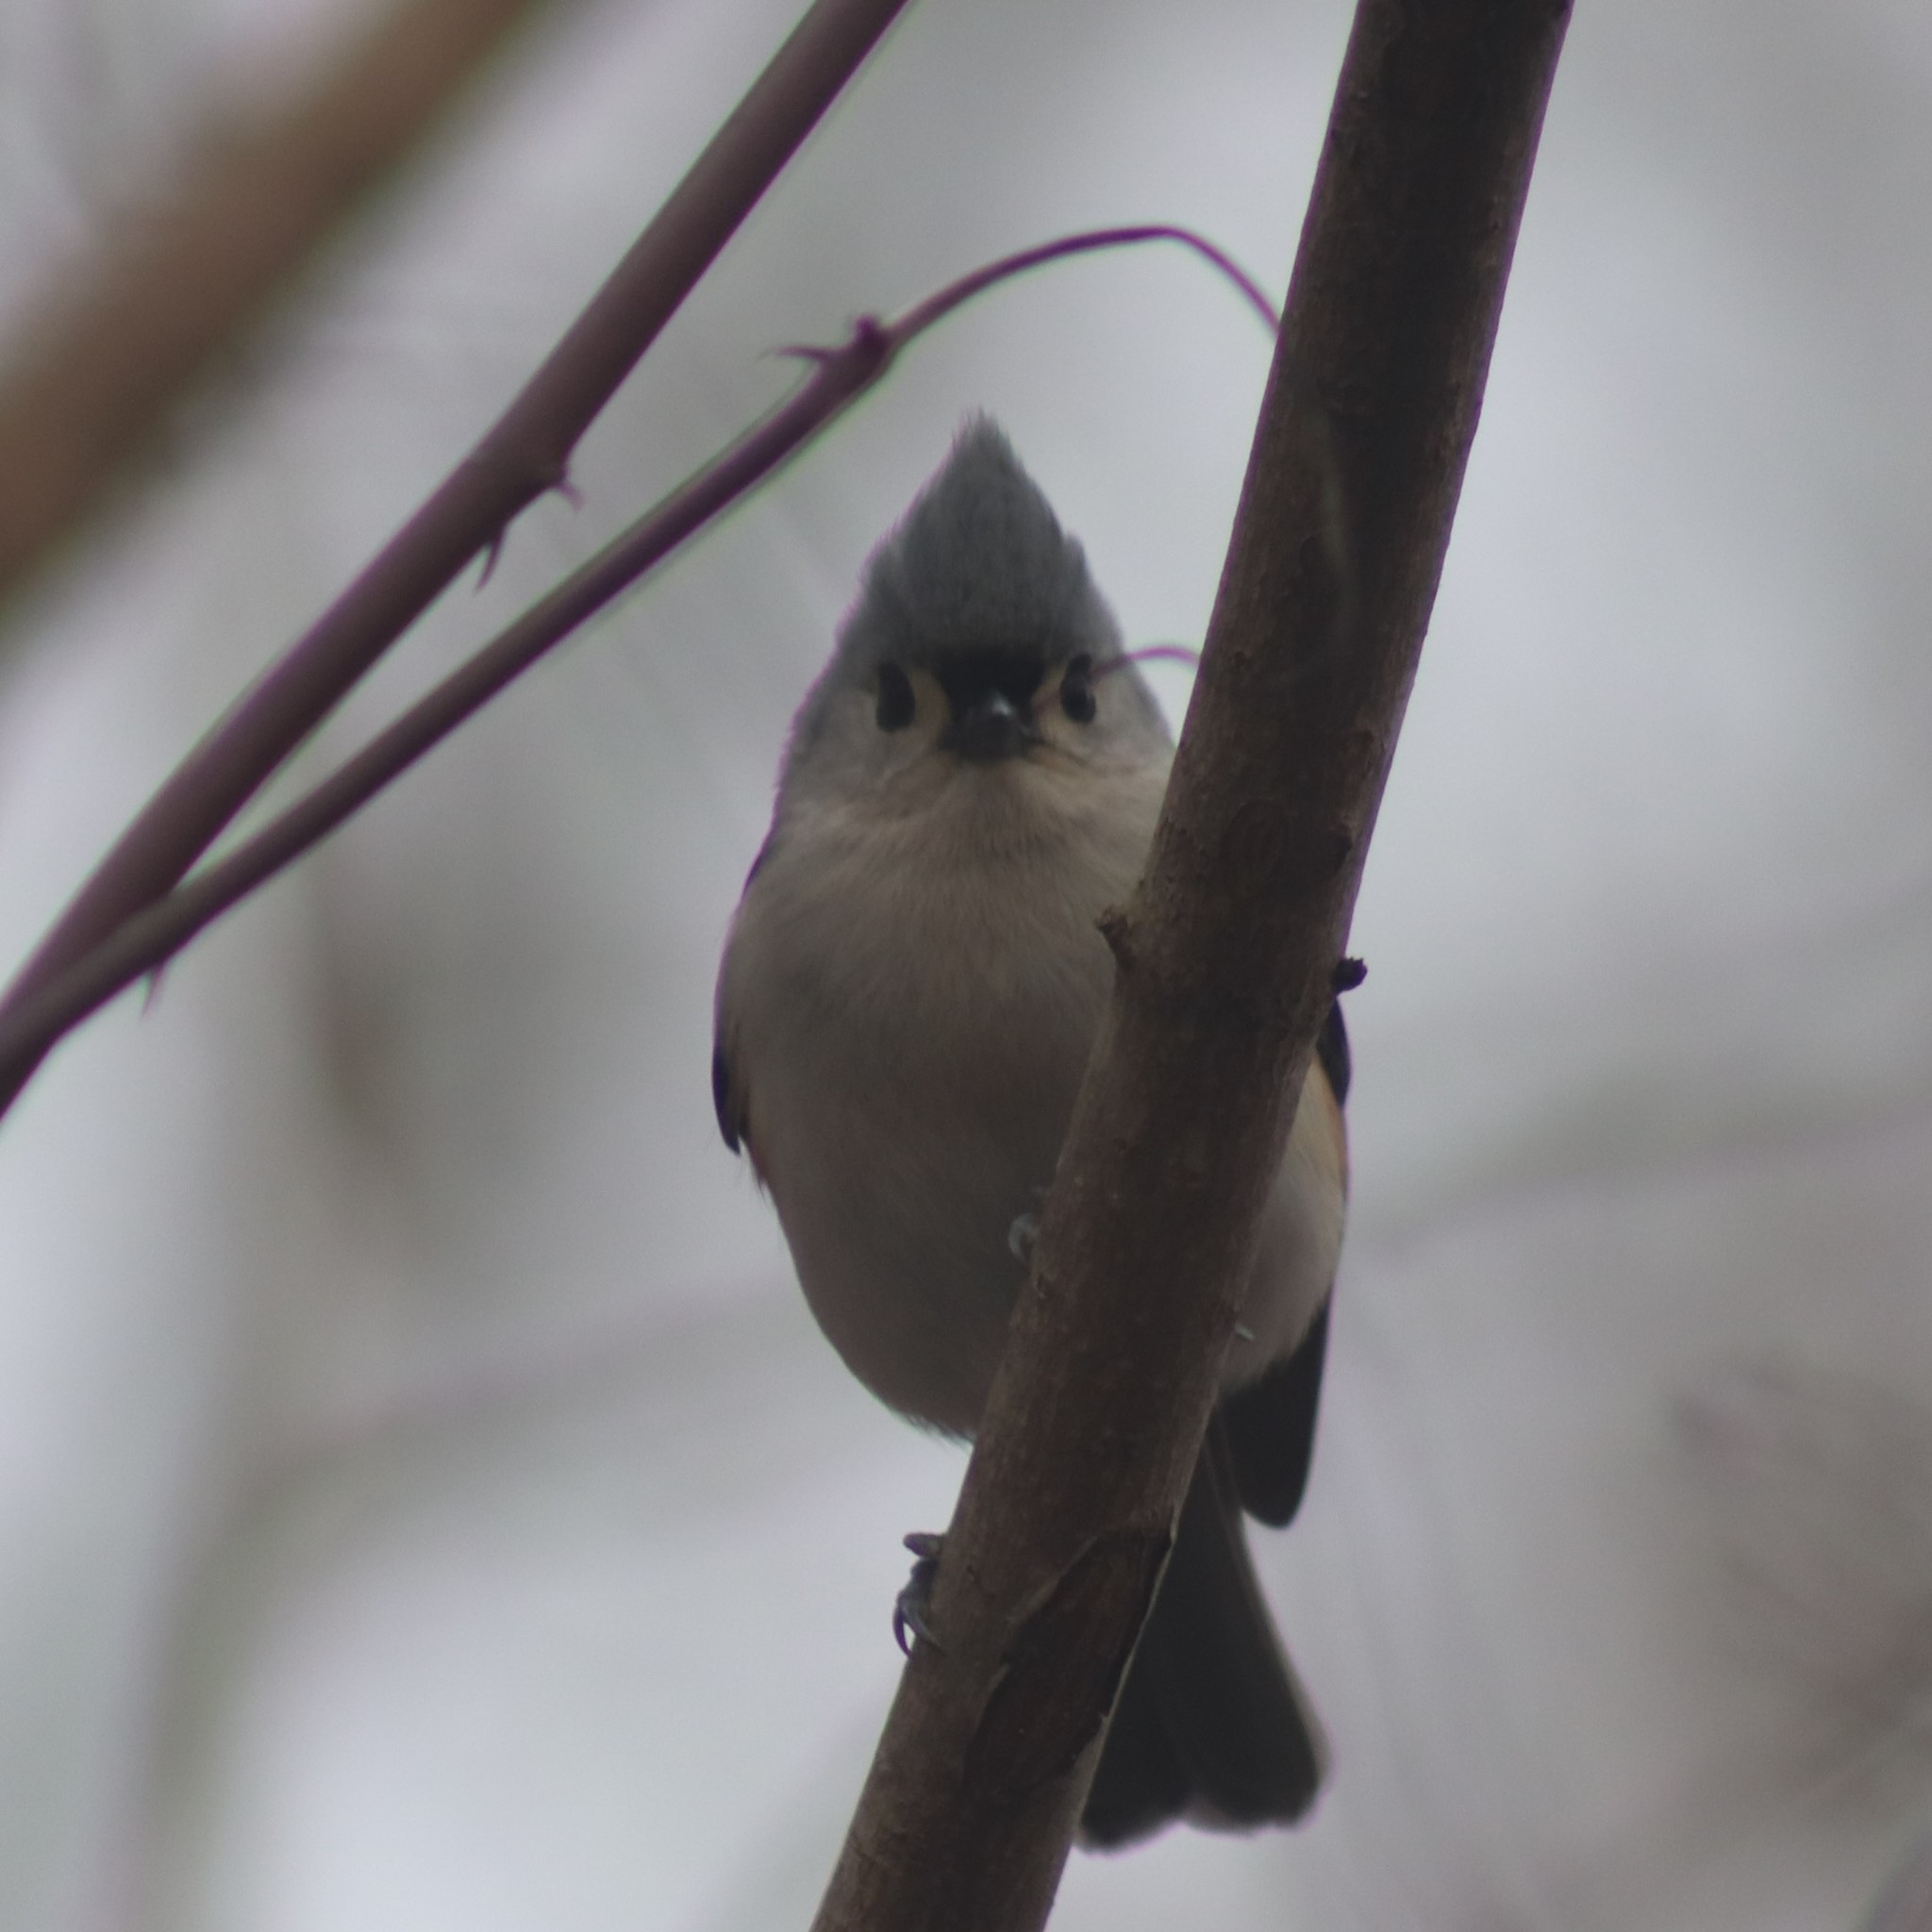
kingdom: Animalia
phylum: Chordata
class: Aves
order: Passeriformes
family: Paridae
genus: Baeolophus
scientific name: Baeolophus bicolor
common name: Tufted titmouse
